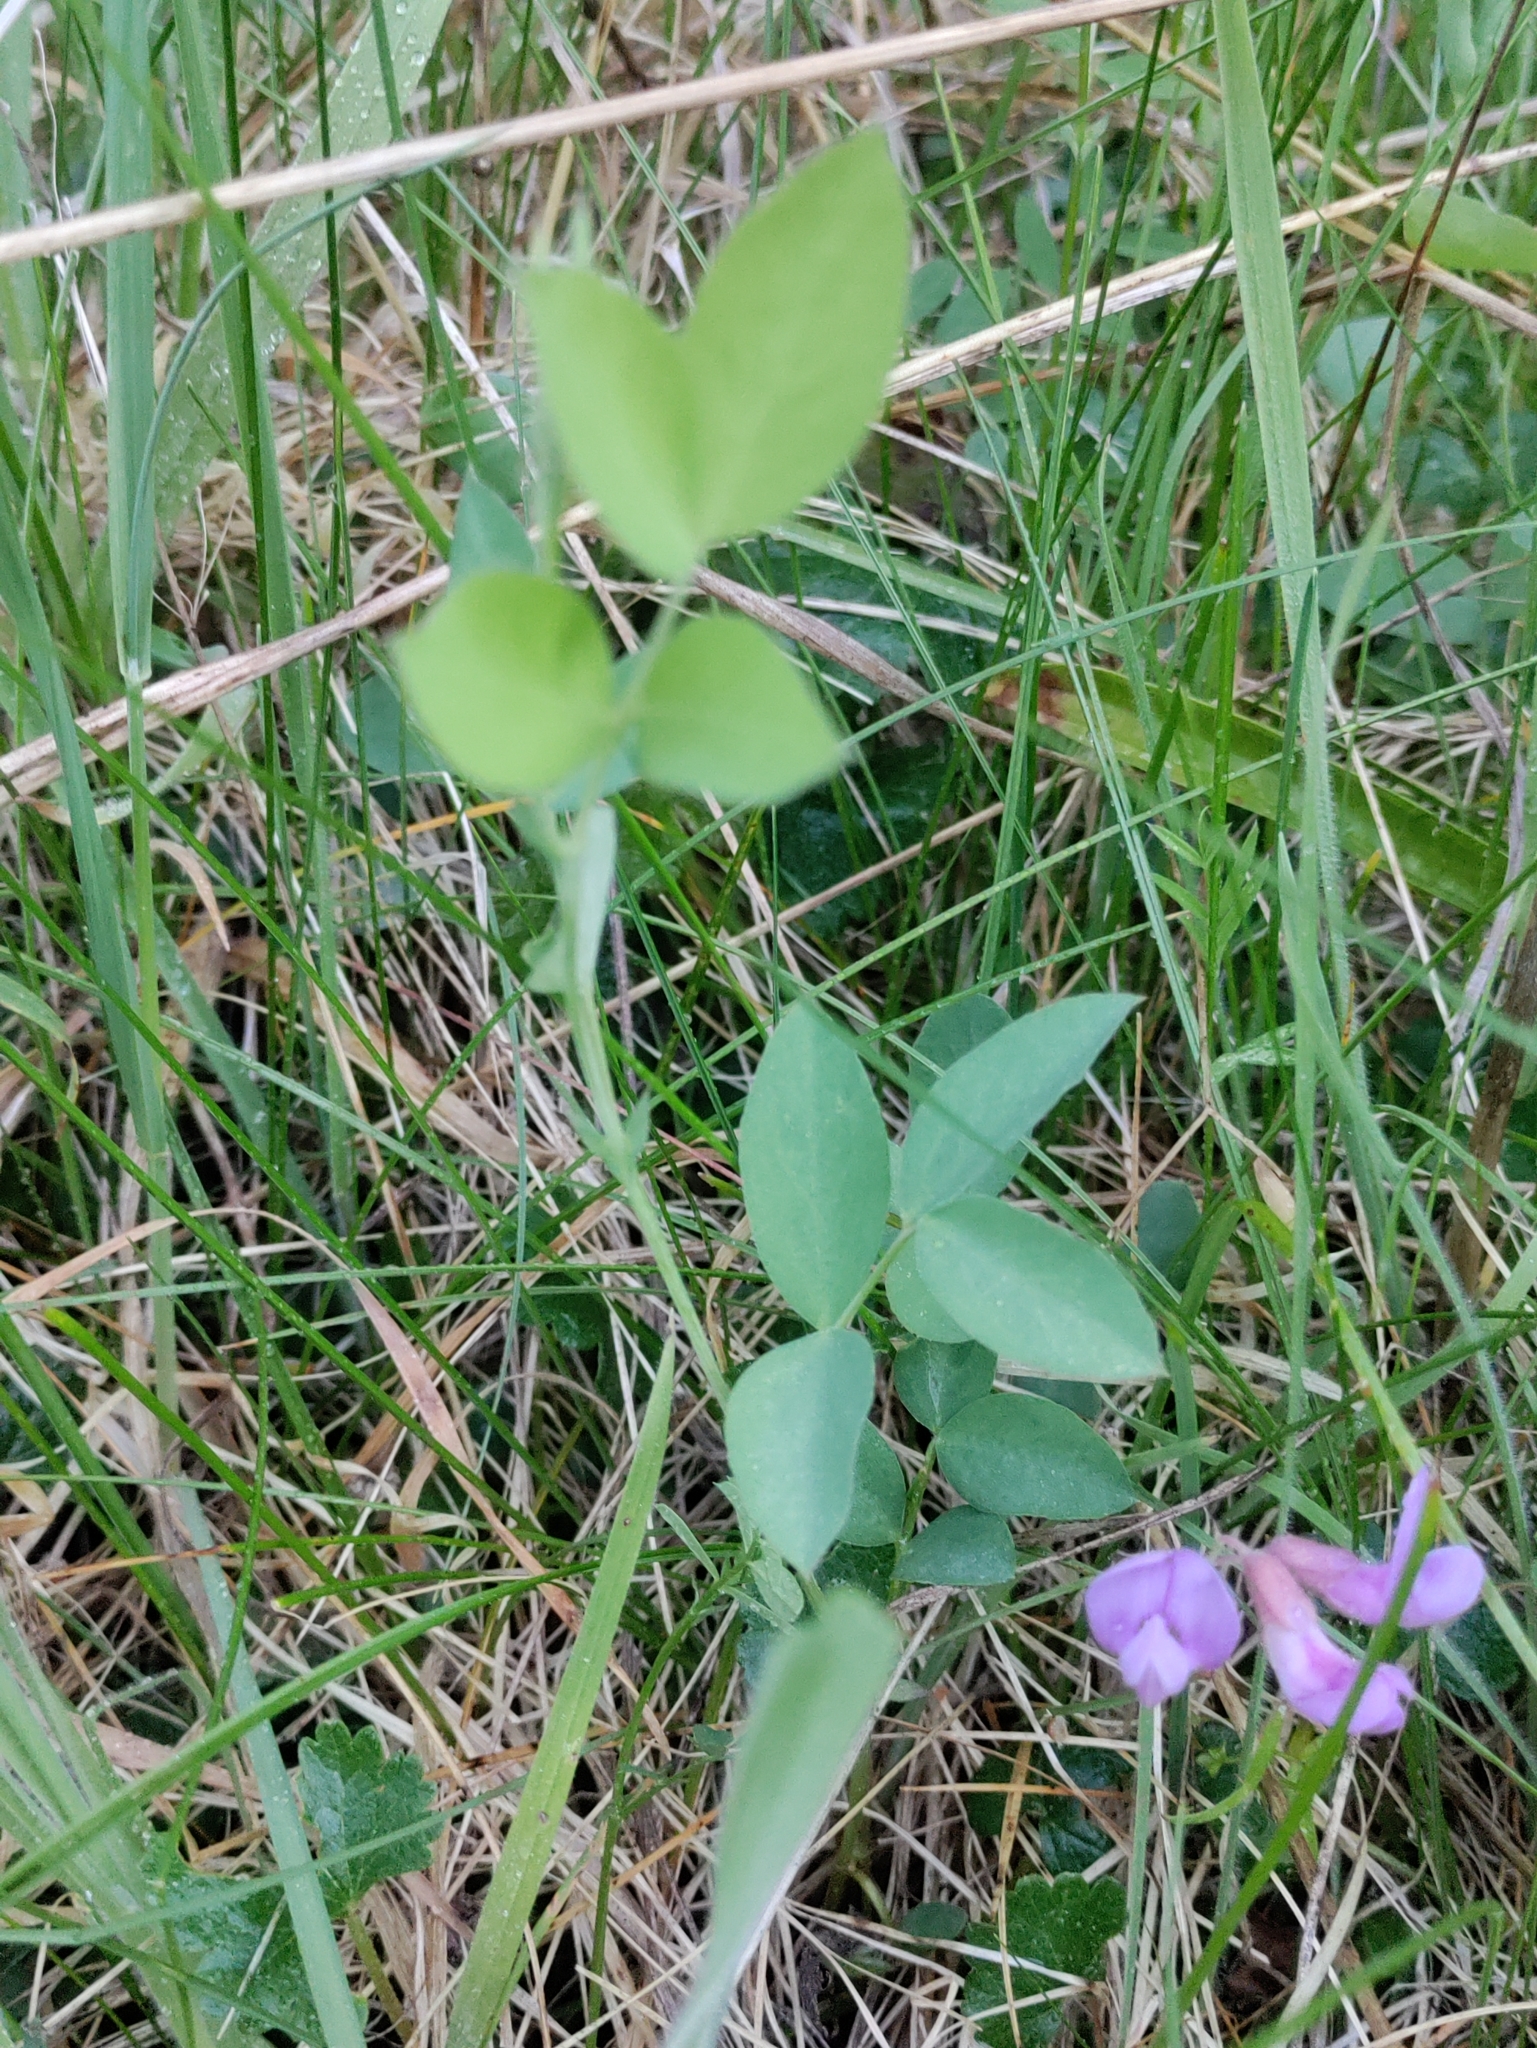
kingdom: Plantae
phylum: Tracheophyta
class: Magnoliopsida
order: Fabales
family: Fabaceae
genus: Lathyrus
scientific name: Lathyrus nevadensis
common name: Sierra nevada peavine
